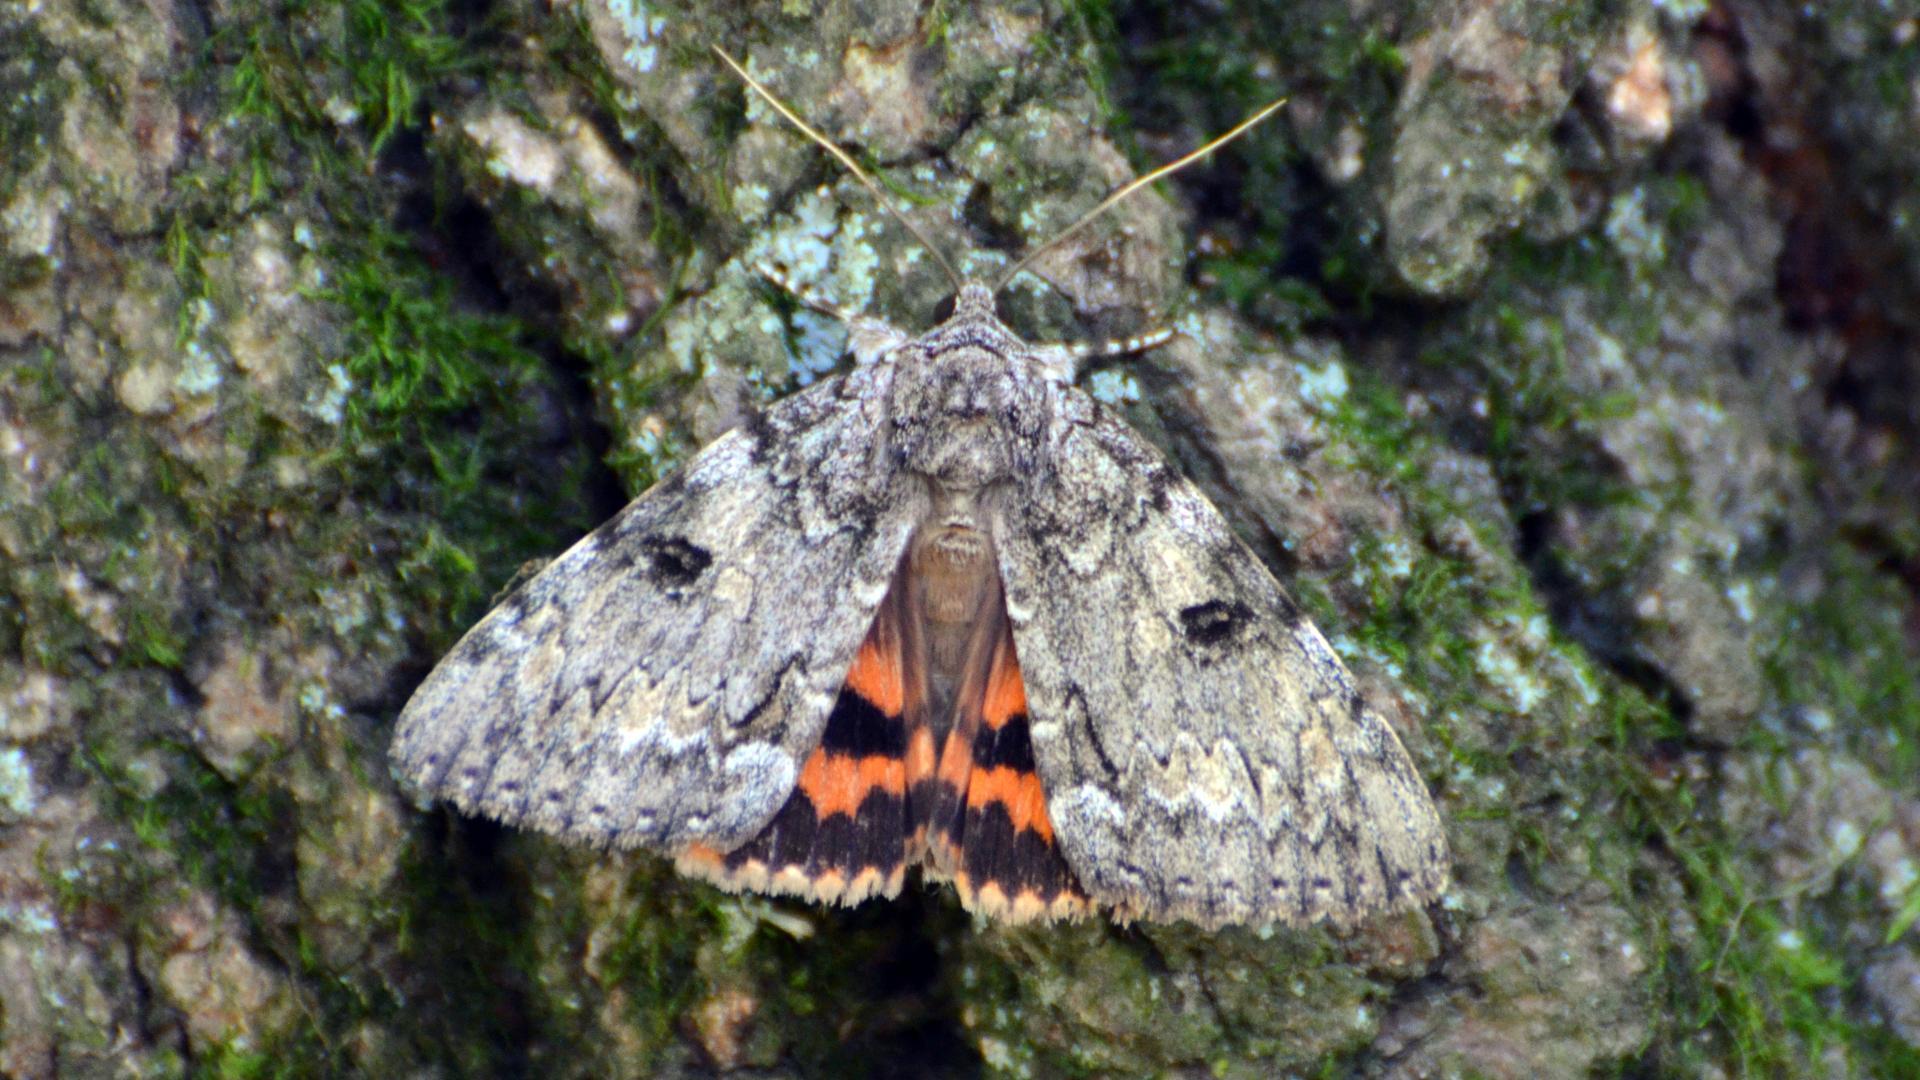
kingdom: Animalia
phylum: Arthropoda
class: Insecta
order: Lepidoptera
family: Erebidae
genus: Catocala
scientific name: Catocala palaeogama
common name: Oldwife underwing
